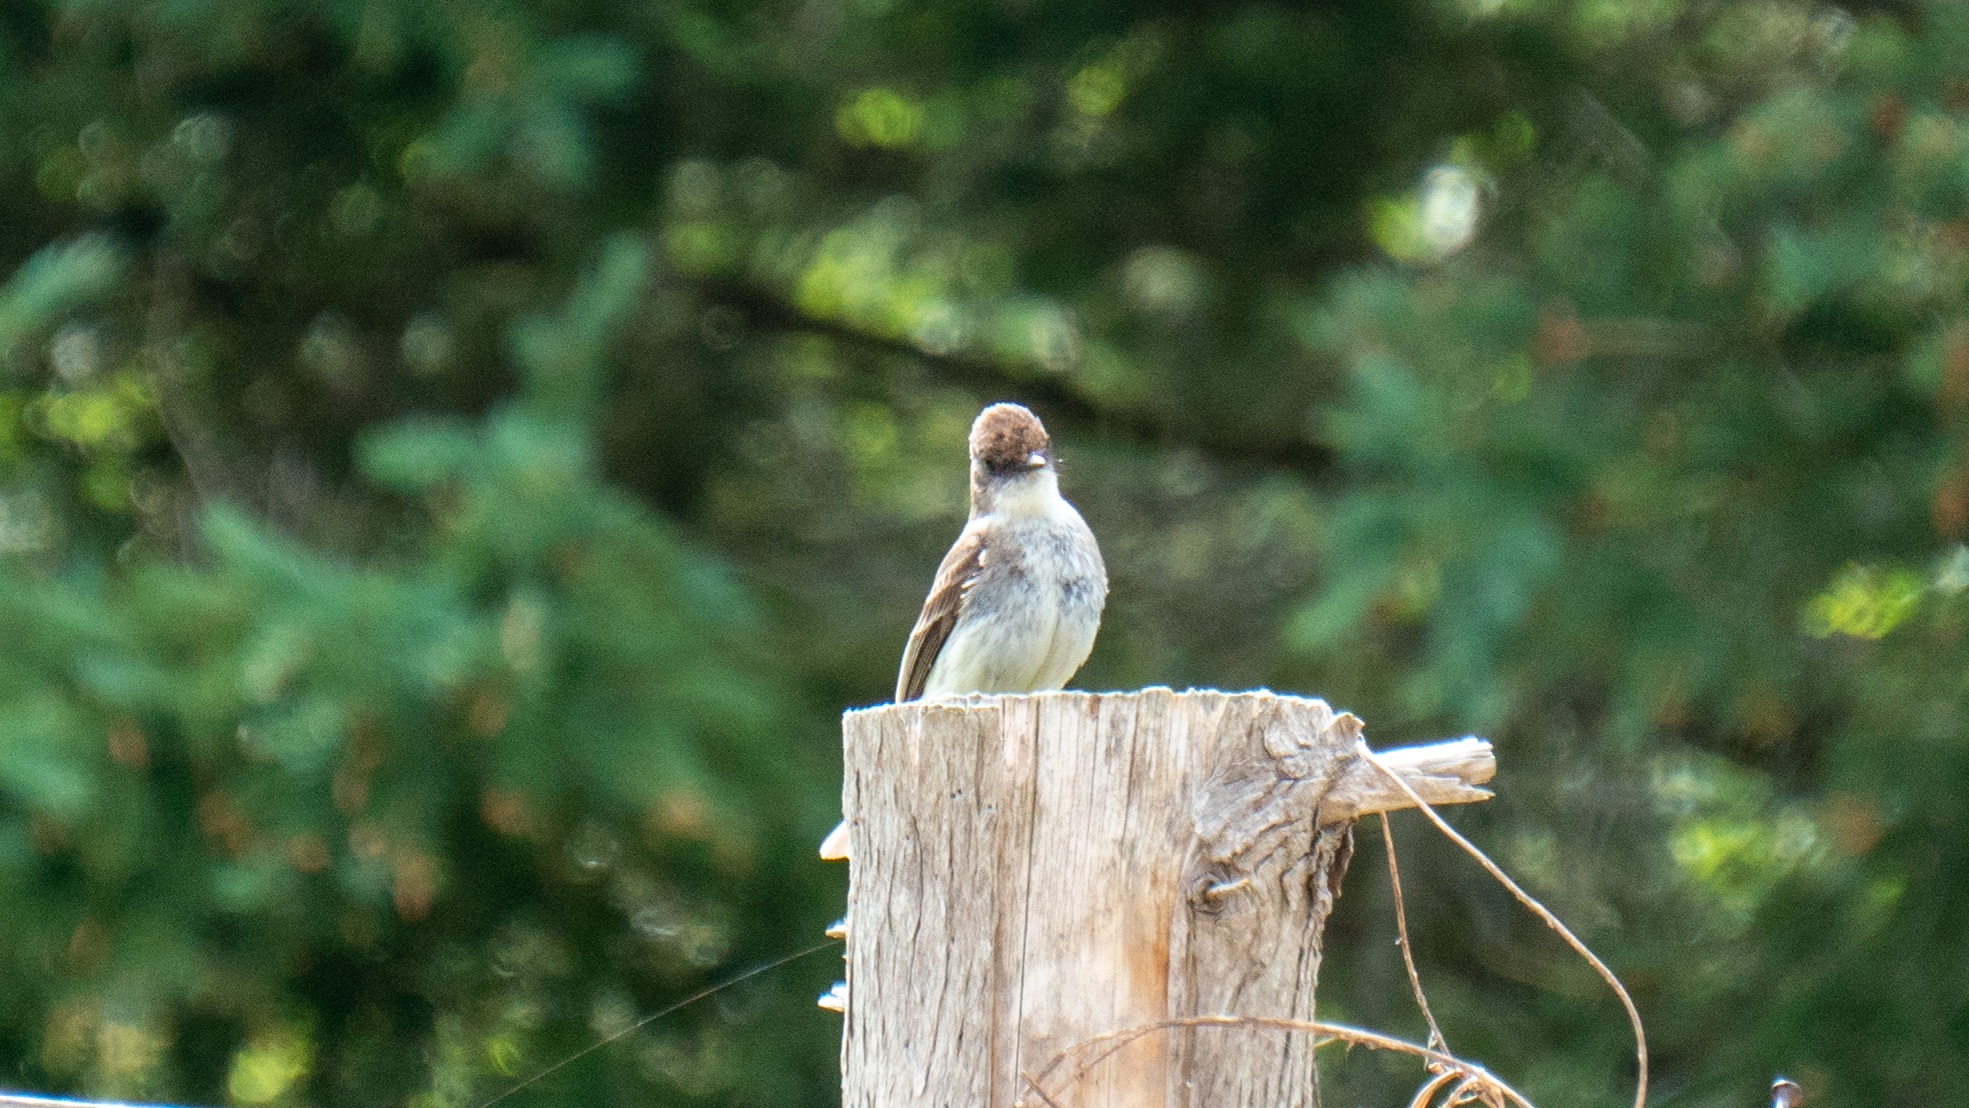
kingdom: Animalia
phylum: Chordata
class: Aves
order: Passeriformes
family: Tyrannidae
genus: Sayornis
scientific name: Sayornis phoebe
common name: Eastern phoebe
